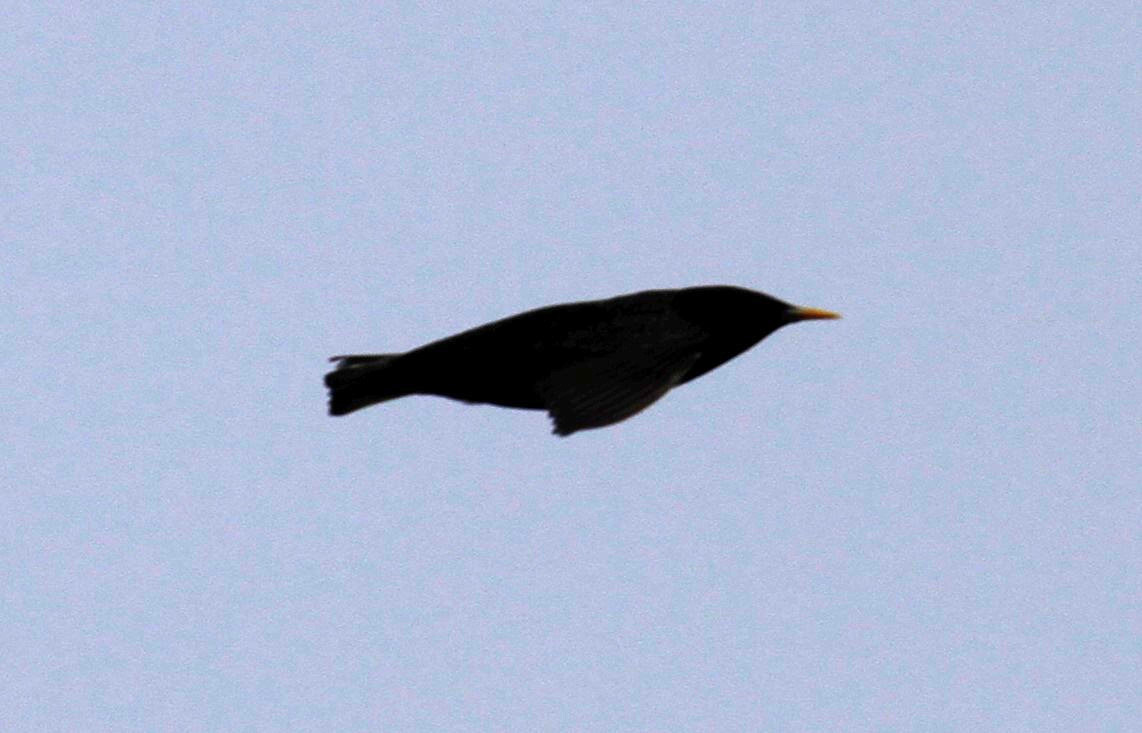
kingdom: Animalia
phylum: Chordata
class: Aves
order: Passeriformes
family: Sturnidae
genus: Sturnus
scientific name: Sturnus vulgaris
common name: Common starling
